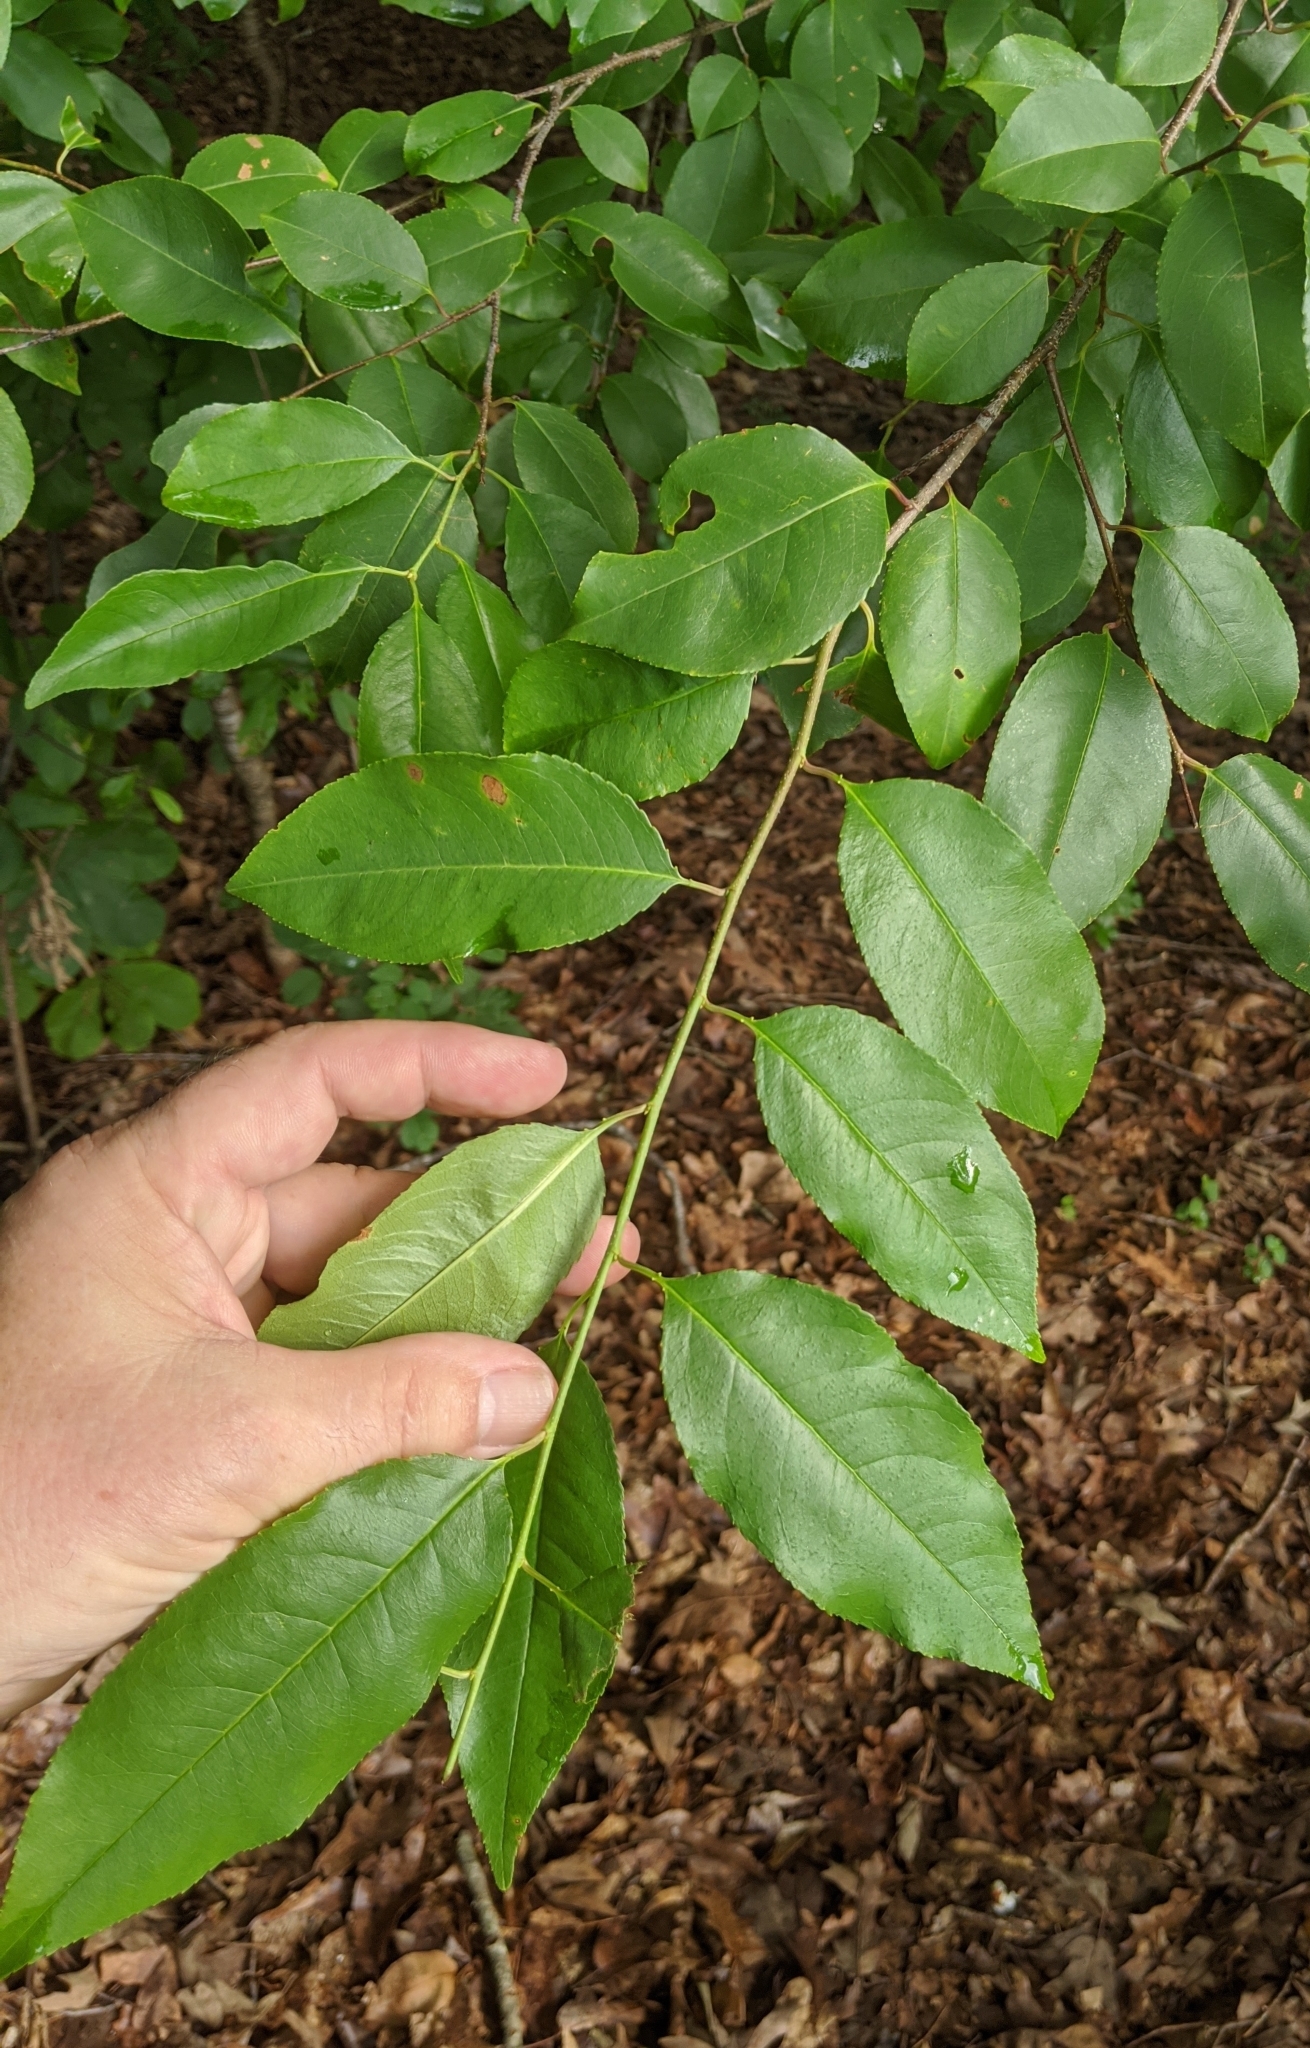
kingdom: Plantae
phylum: Tracheophyta
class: Magnoliopsida
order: Rosales
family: Rosaceae
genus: Prunus
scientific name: Prunus serotina
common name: Black cherry
